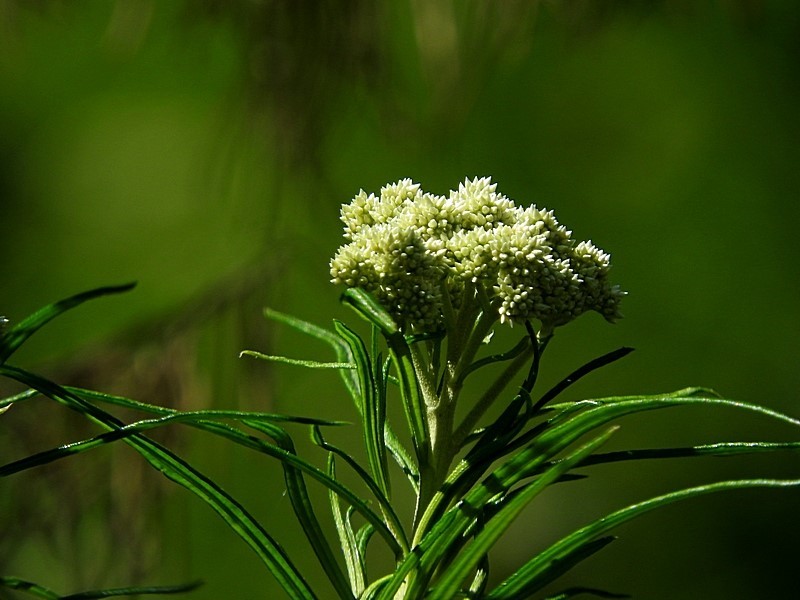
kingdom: Plantae
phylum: Tracheophyta
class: Magnoliopsida
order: Asterales
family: Asteraceae
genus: Cassinia
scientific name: Cassinia longifolia
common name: Longleaf-dogwood
